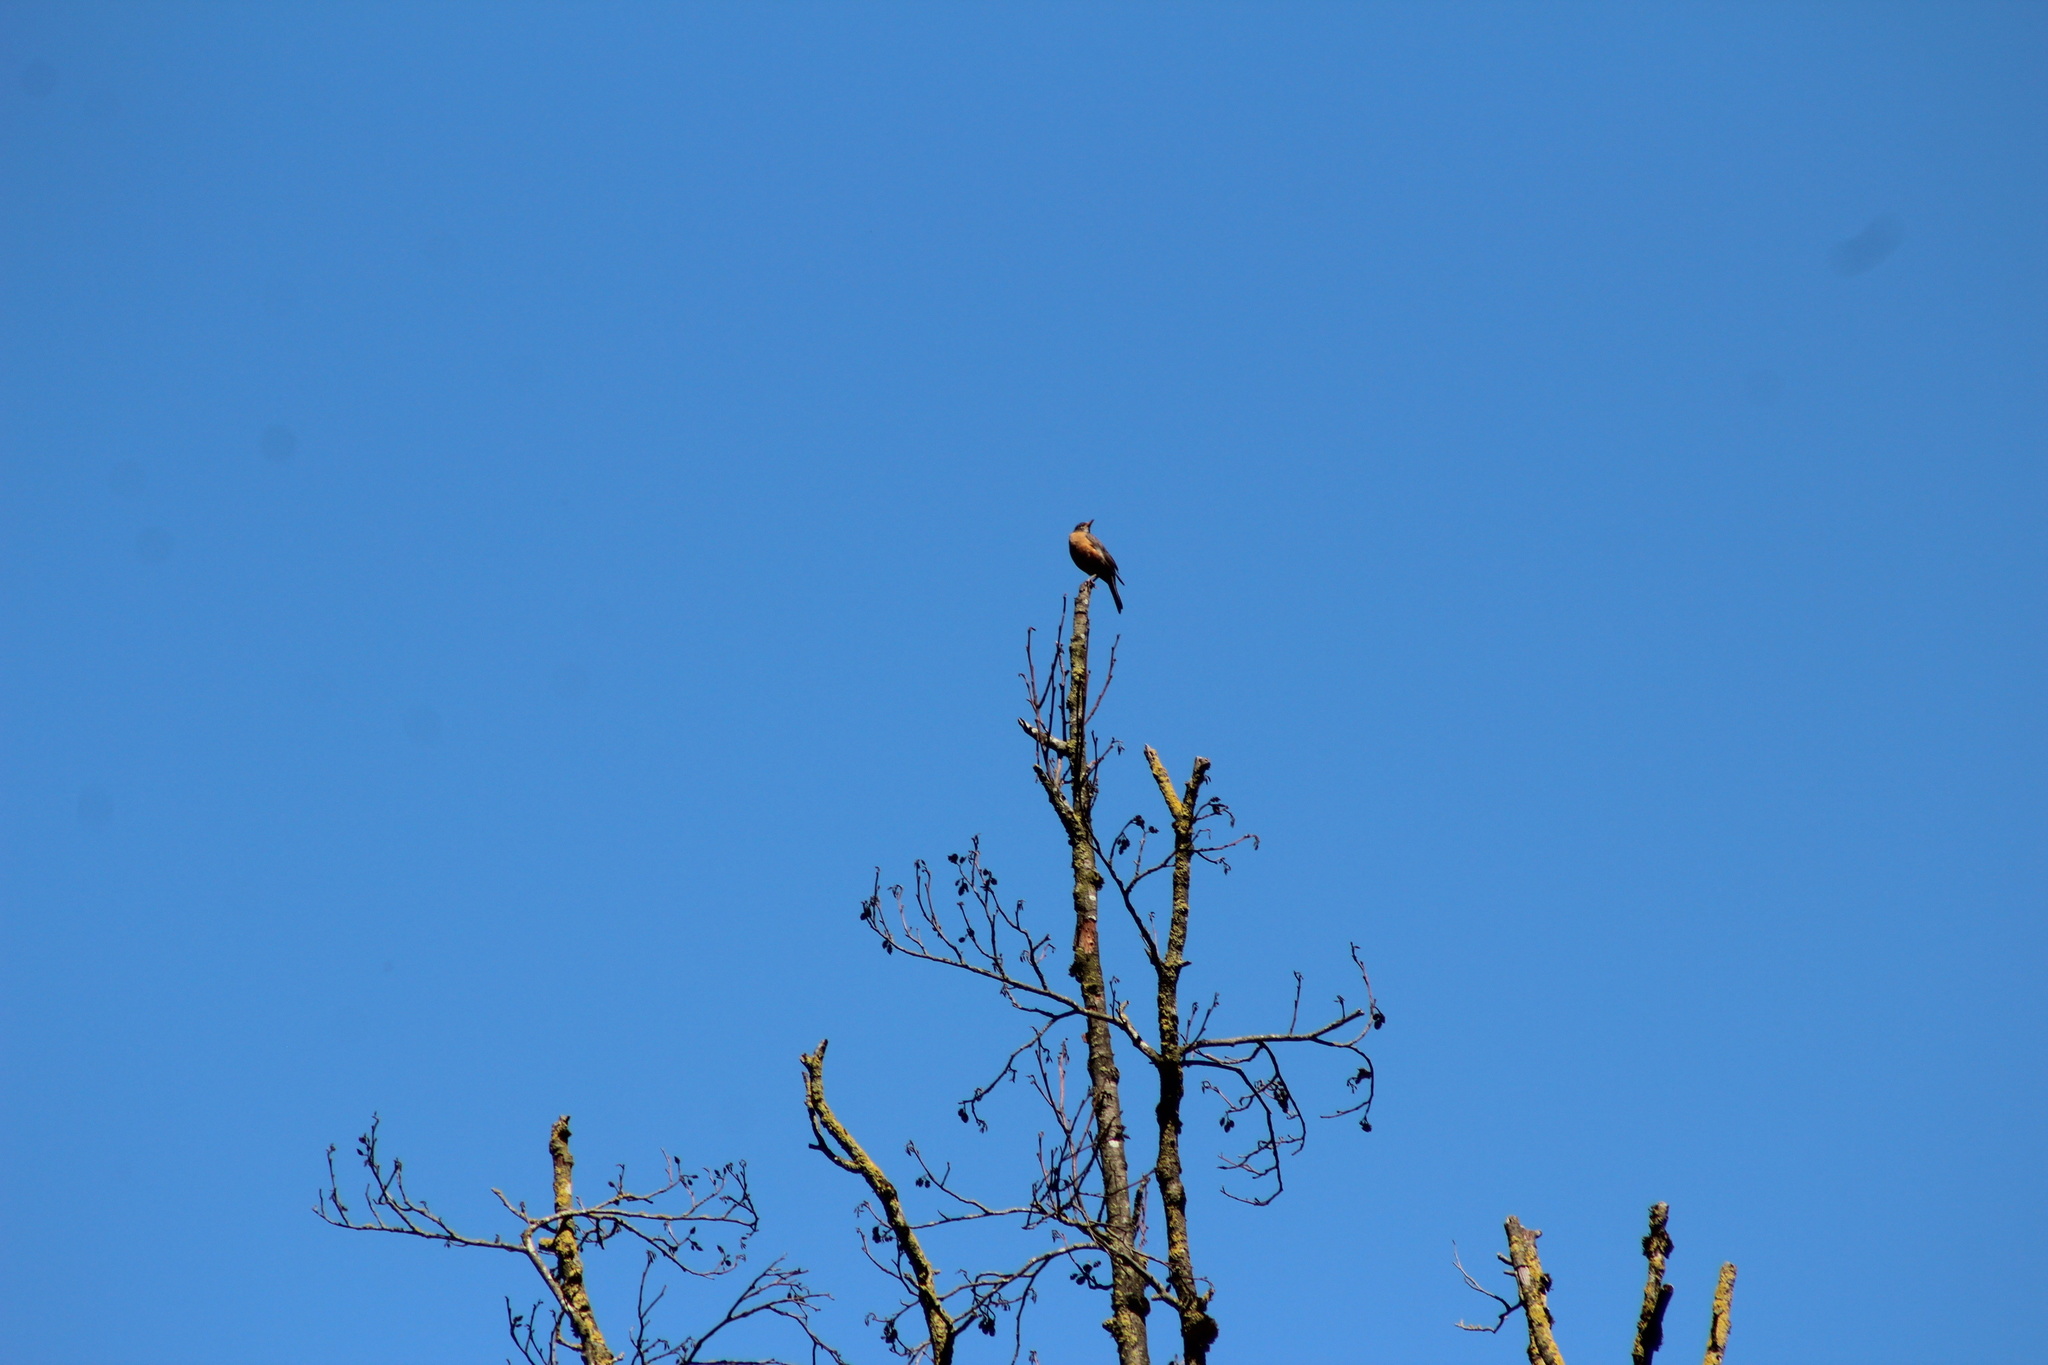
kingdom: Animalia
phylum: Chordata
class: Aves
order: Passeriformes
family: Turdidae
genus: Turdus
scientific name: Turdus migratorius
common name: American robin
